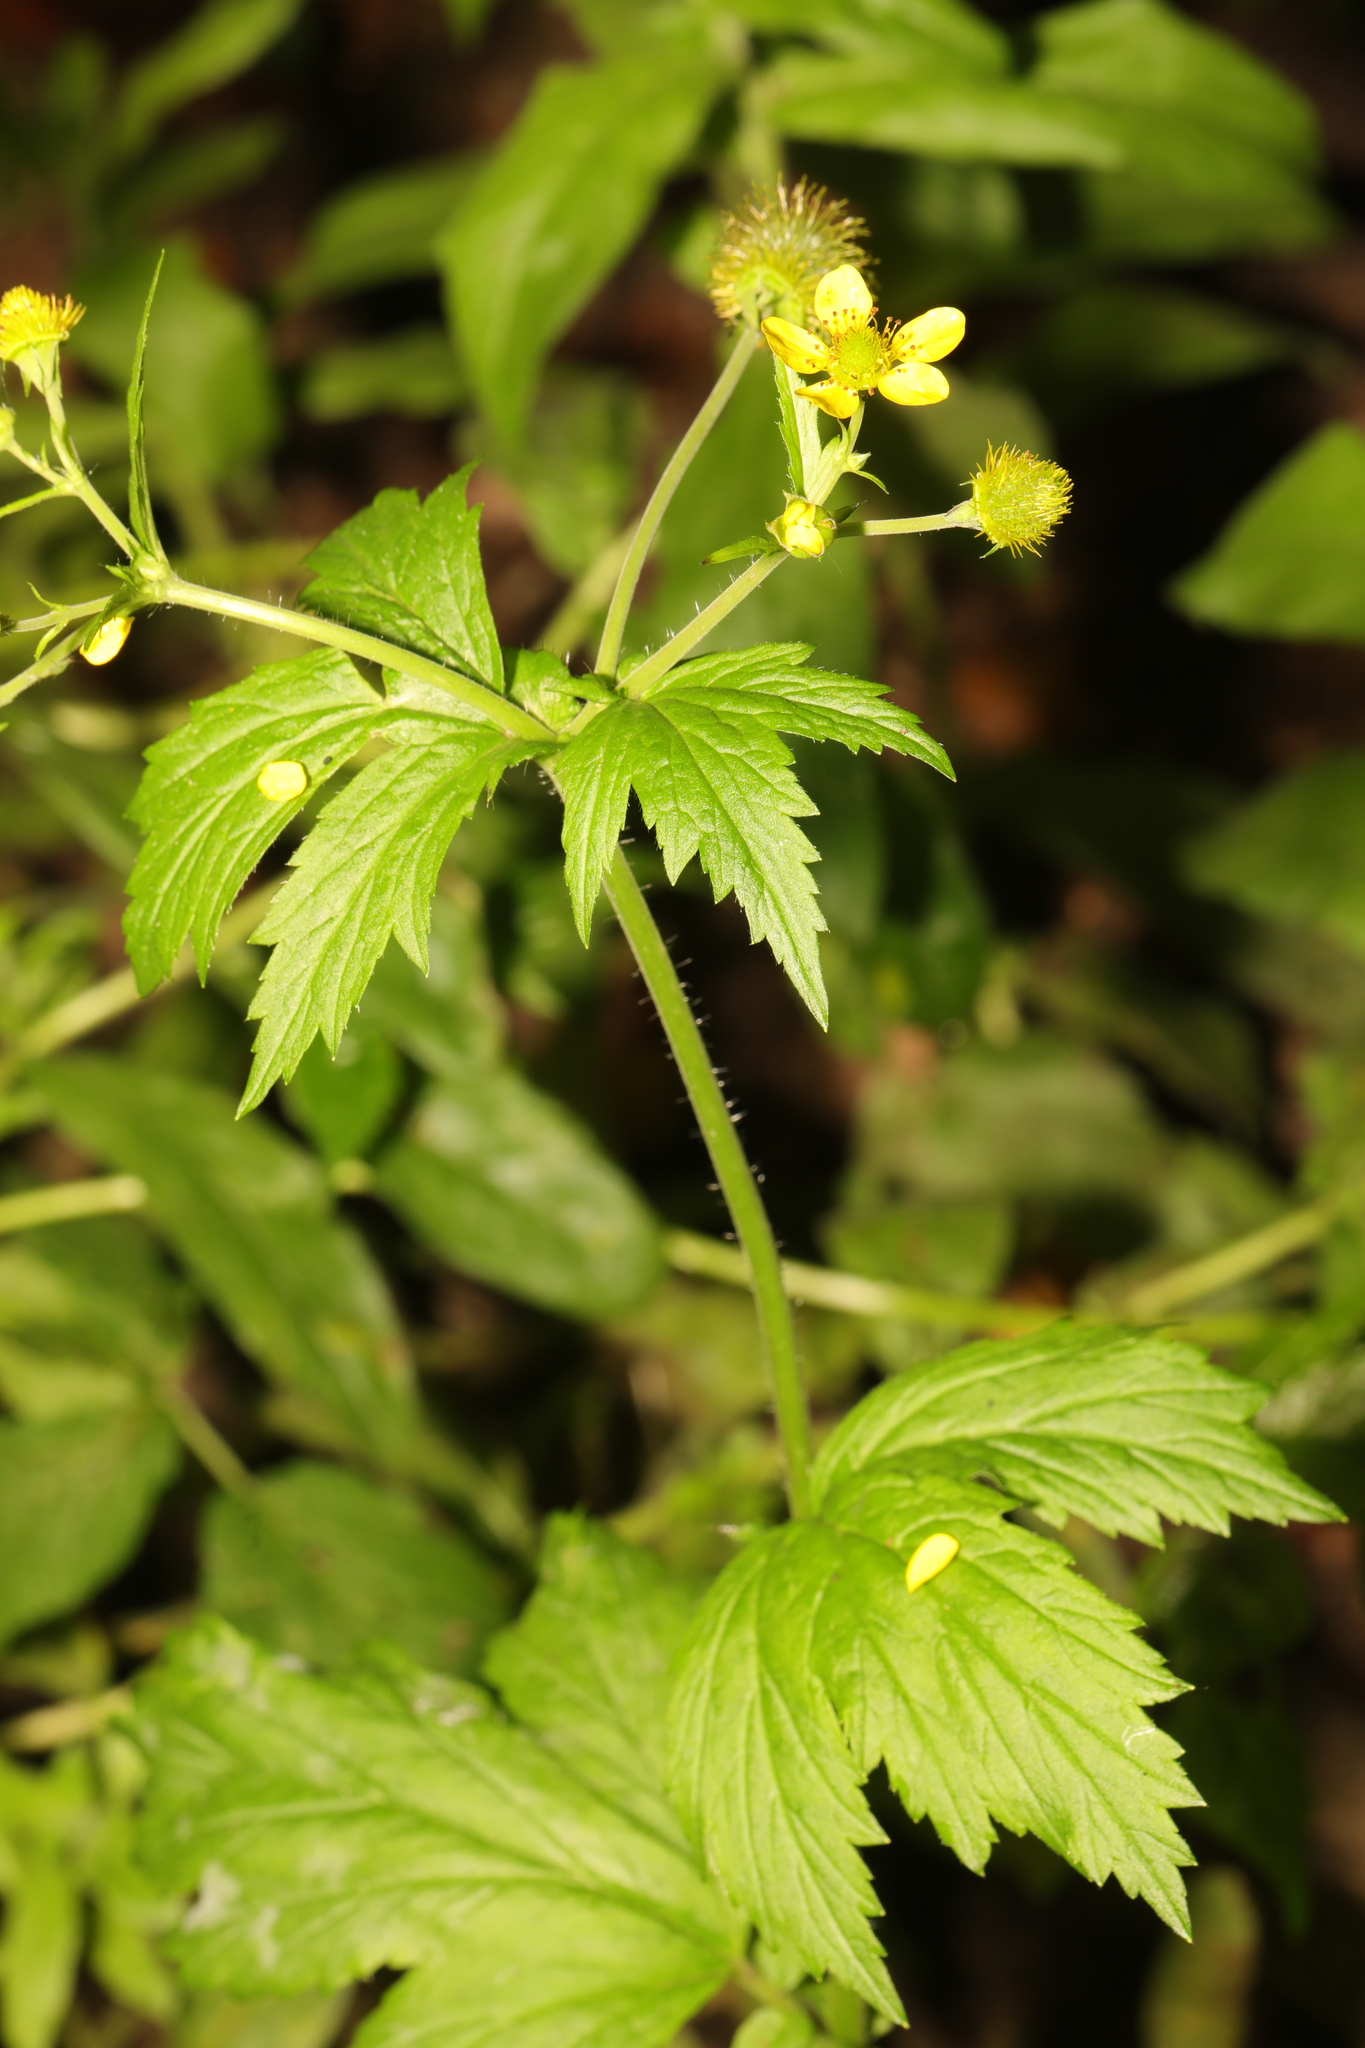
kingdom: Plantae
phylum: Tracheophyta
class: Magnoliopsida
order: Rosales
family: Rosaceae
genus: Geum
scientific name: Geum urbanum
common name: Wood avens
